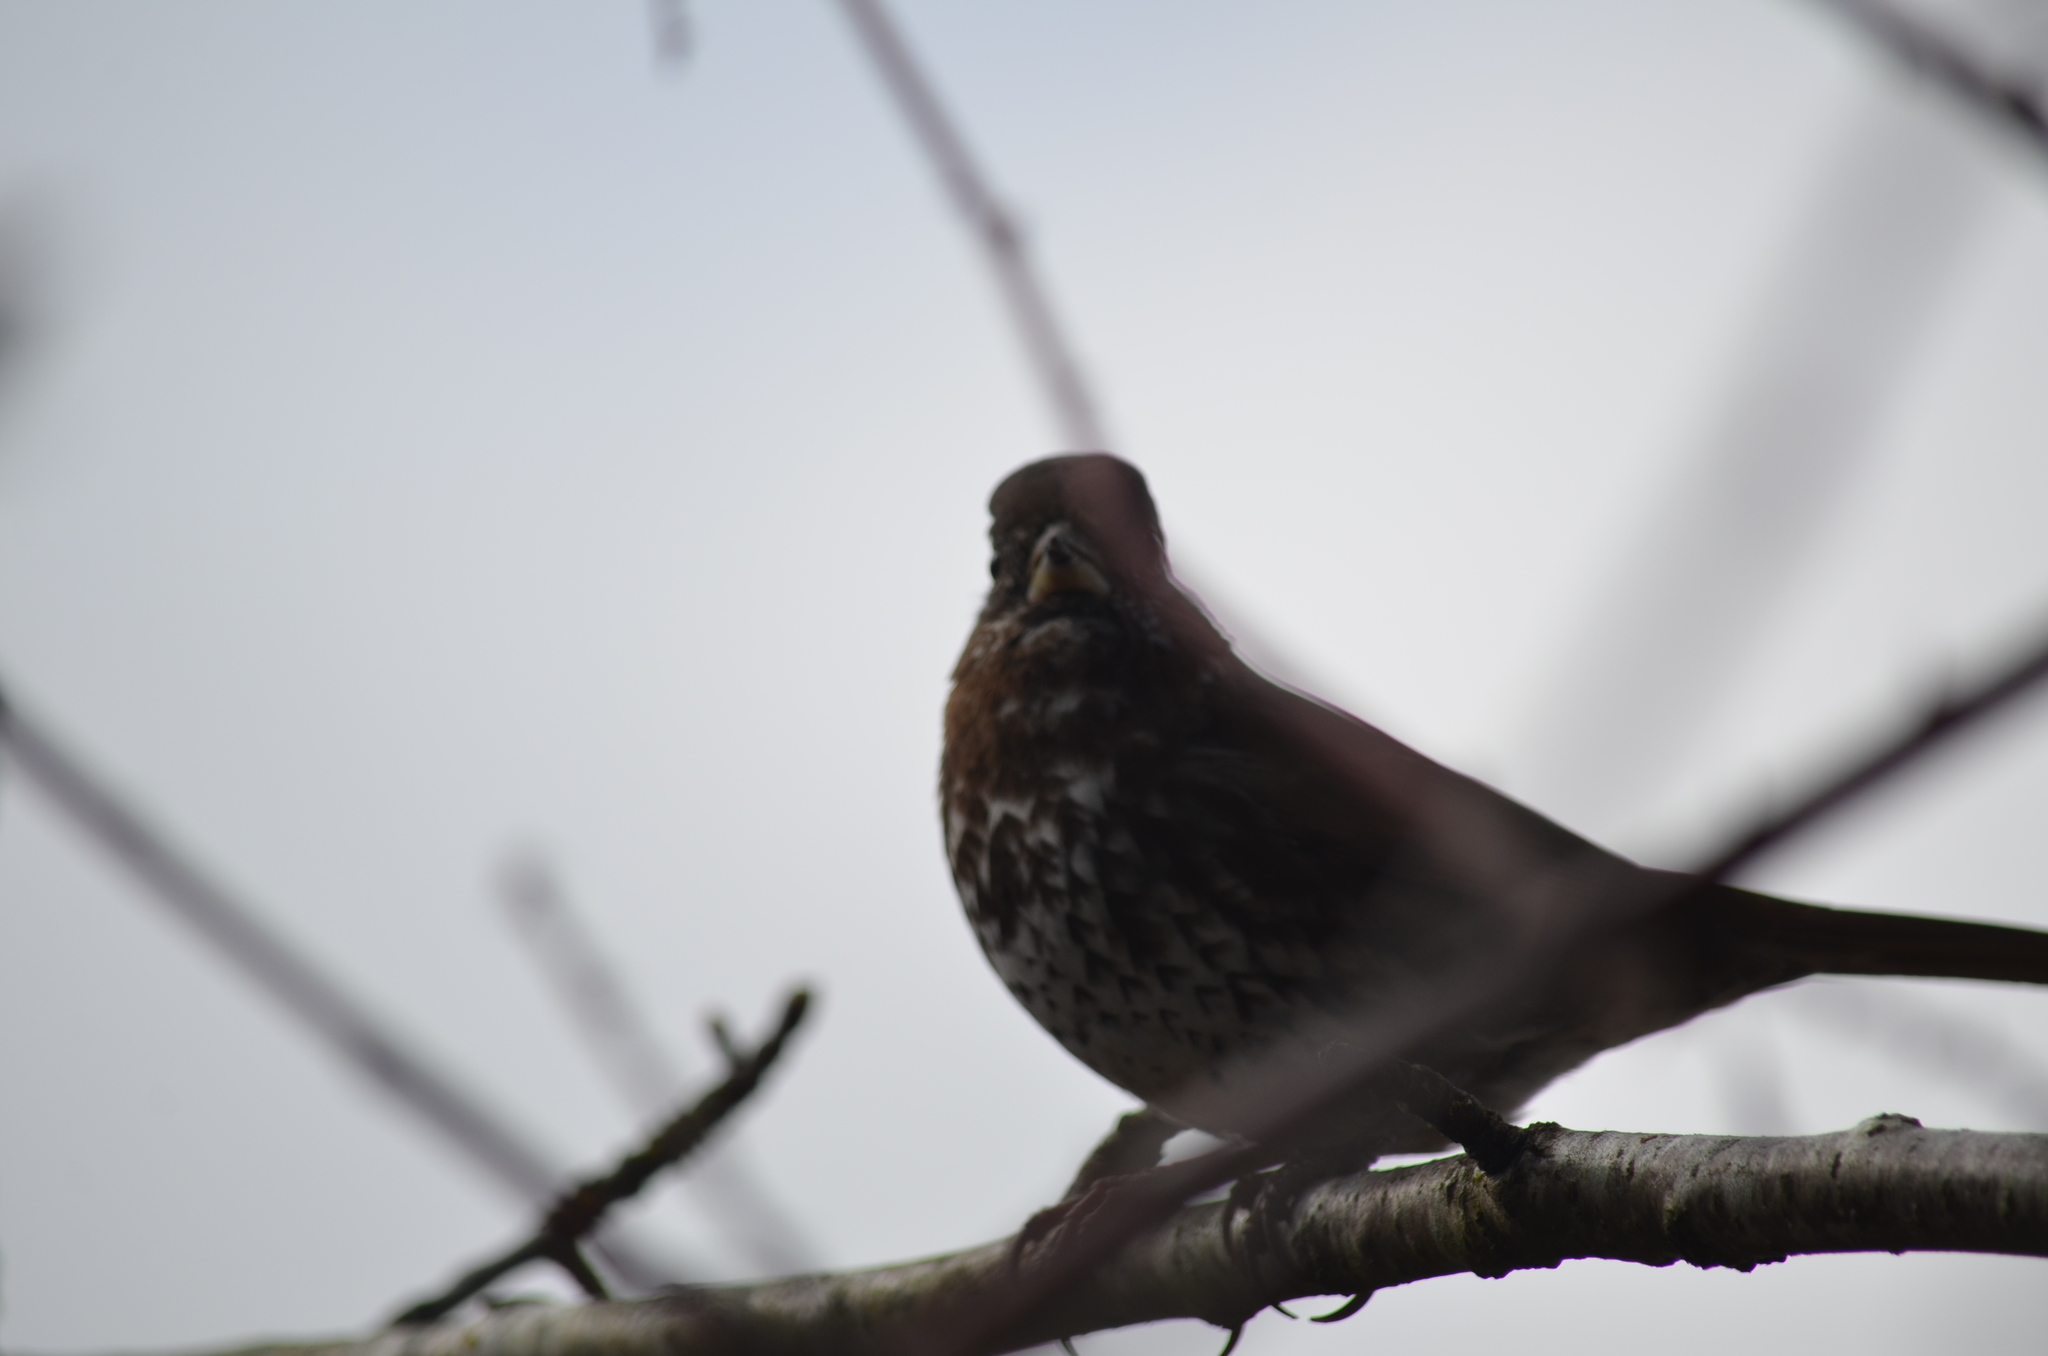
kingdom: Animalia
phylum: Chordata
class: Aves
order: Passeriformes
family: Passerellidae
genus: Passerella
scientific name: Passerella iliaca
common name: Fox sparrow
